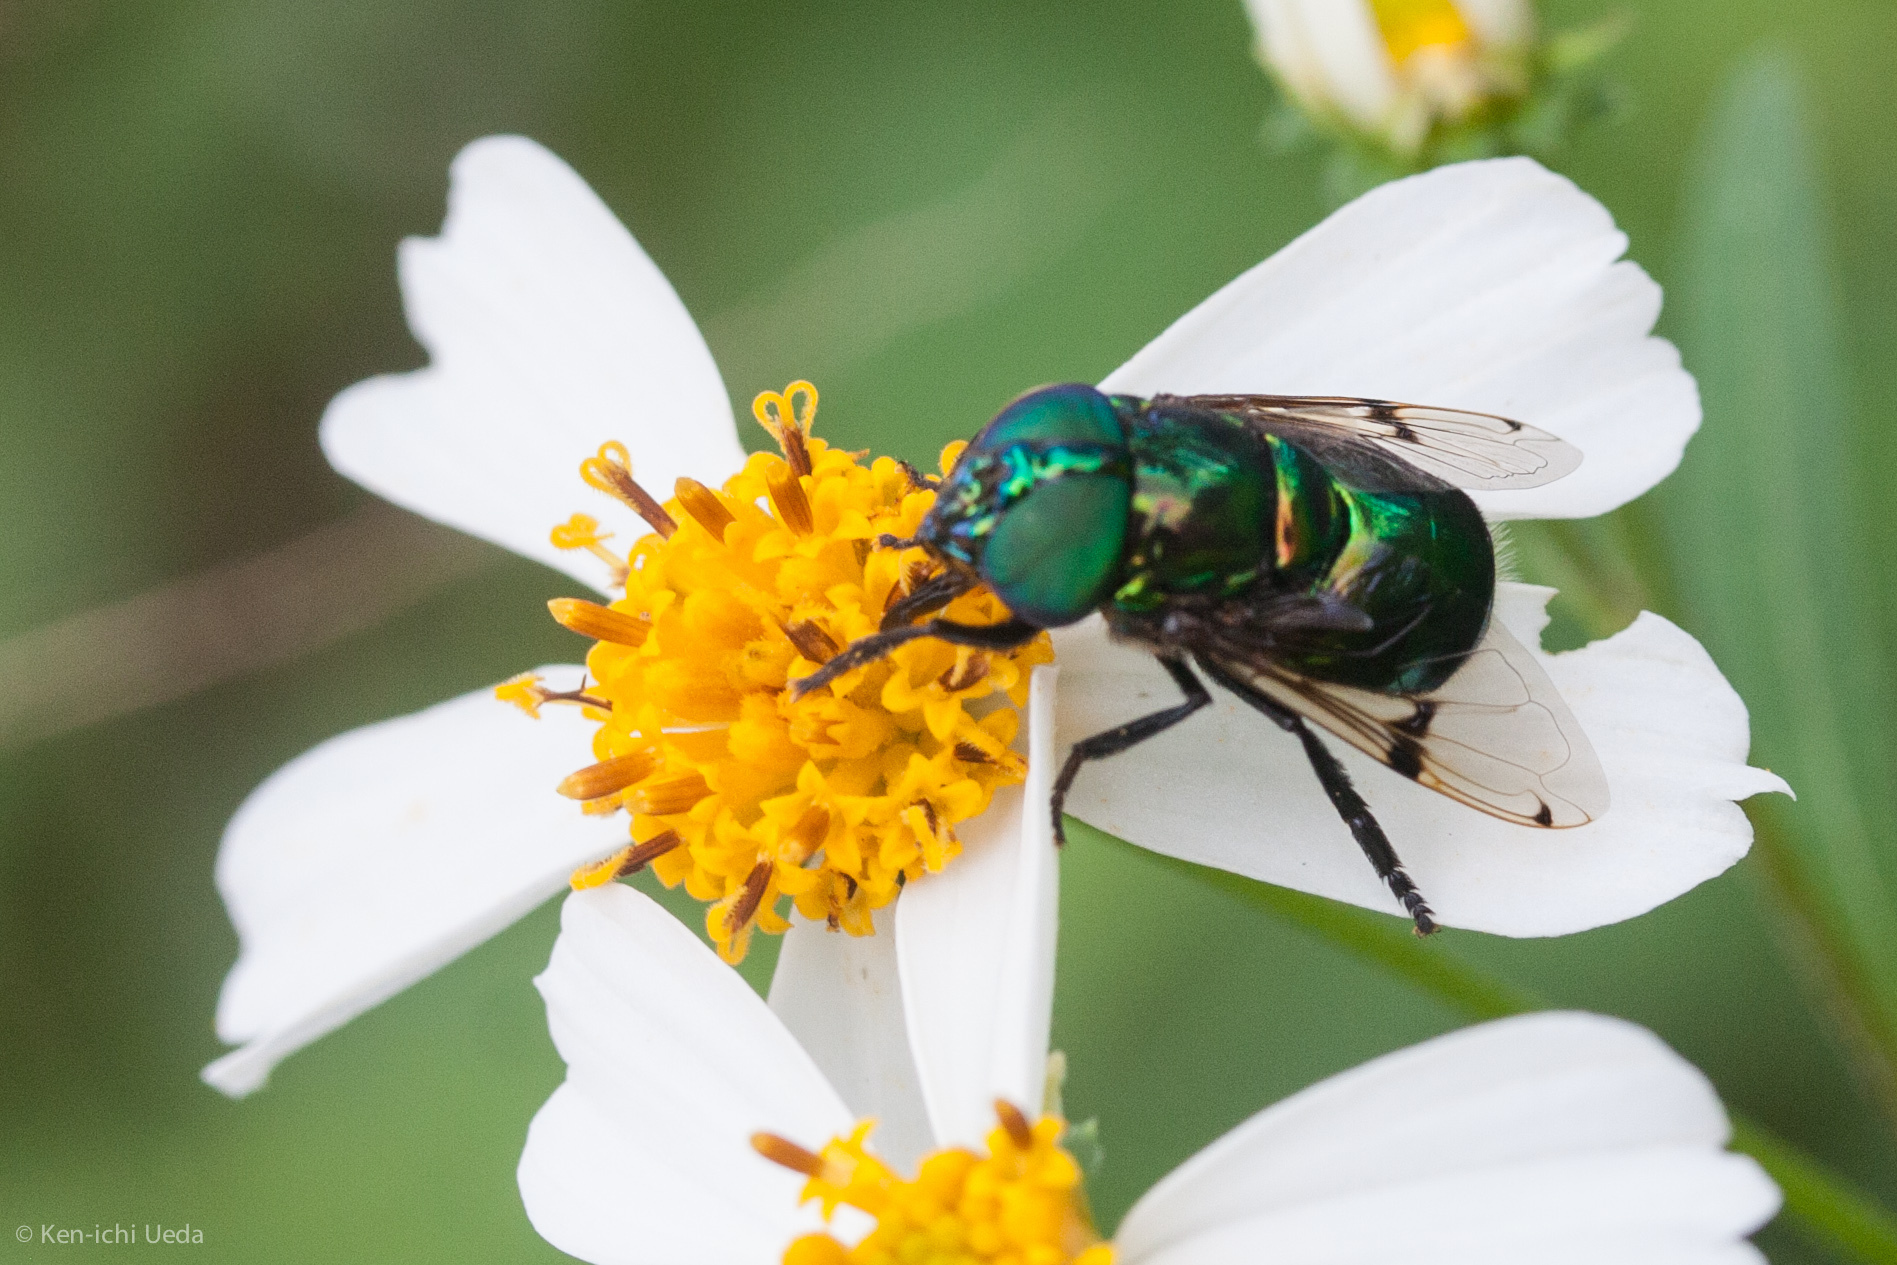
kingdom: Animalia
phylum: Arthropoda
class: Insecta
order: Diptera
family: Syrphidae
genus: Ornidia
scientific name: Ornidia obesa
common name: Syrphid fly
